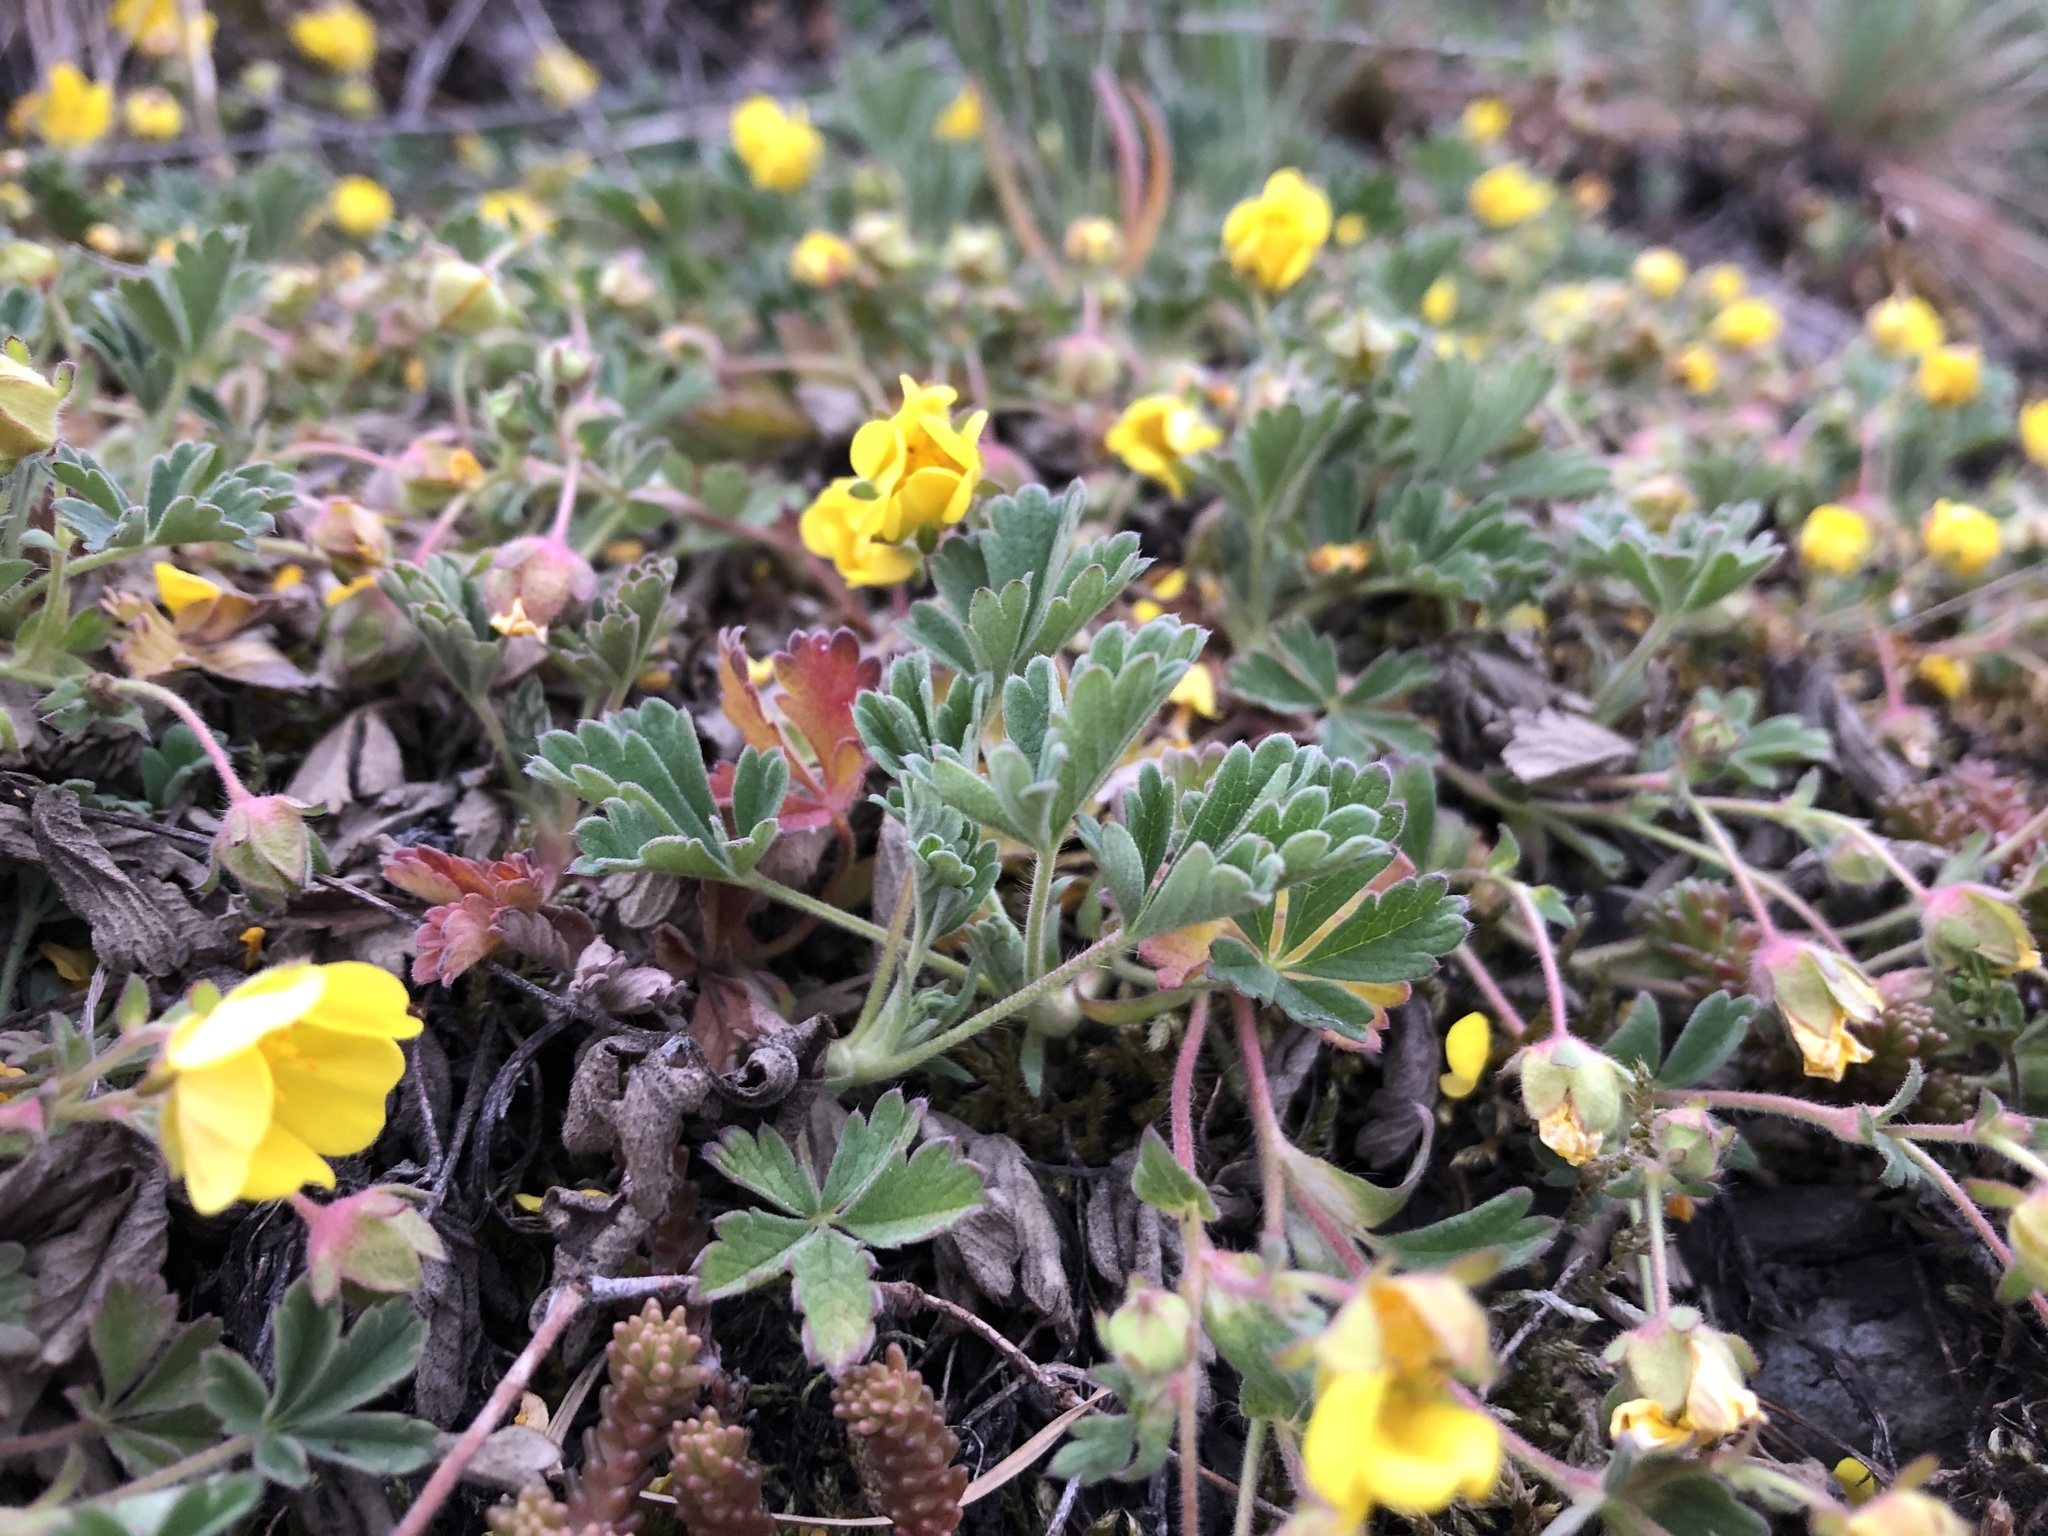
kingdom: Plantae
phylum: Tracheophyta
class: Magnoliopsida
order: Rosales
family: Rosaceae
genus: Potentilla
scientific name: Potentilla incana
